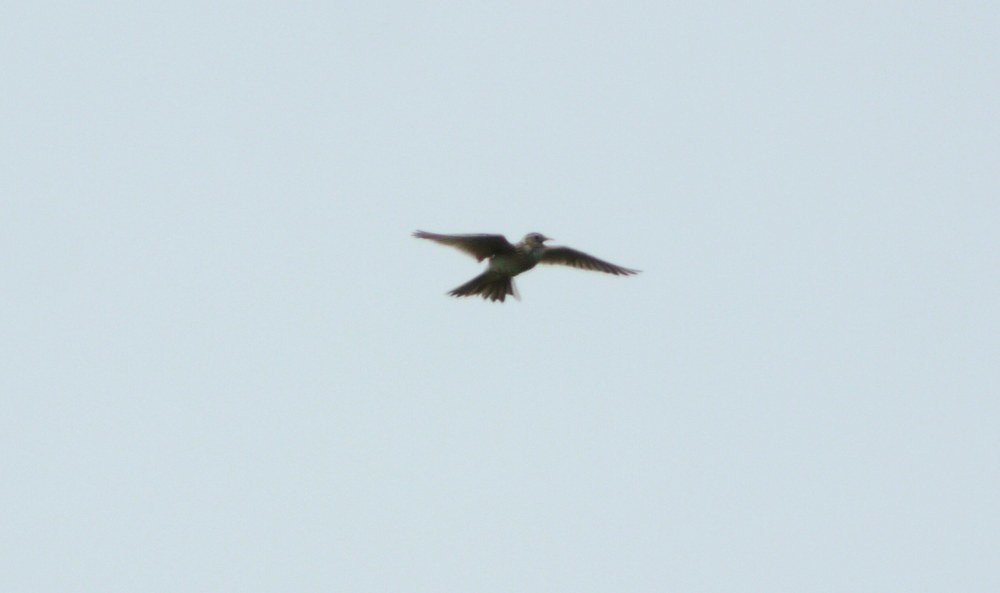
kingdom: Animalia
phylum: Chordata
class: Aves
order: Passeriformes
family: Alaudidae
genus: Alauda
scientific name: Alauda arvensis
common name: Eurasian skylark
